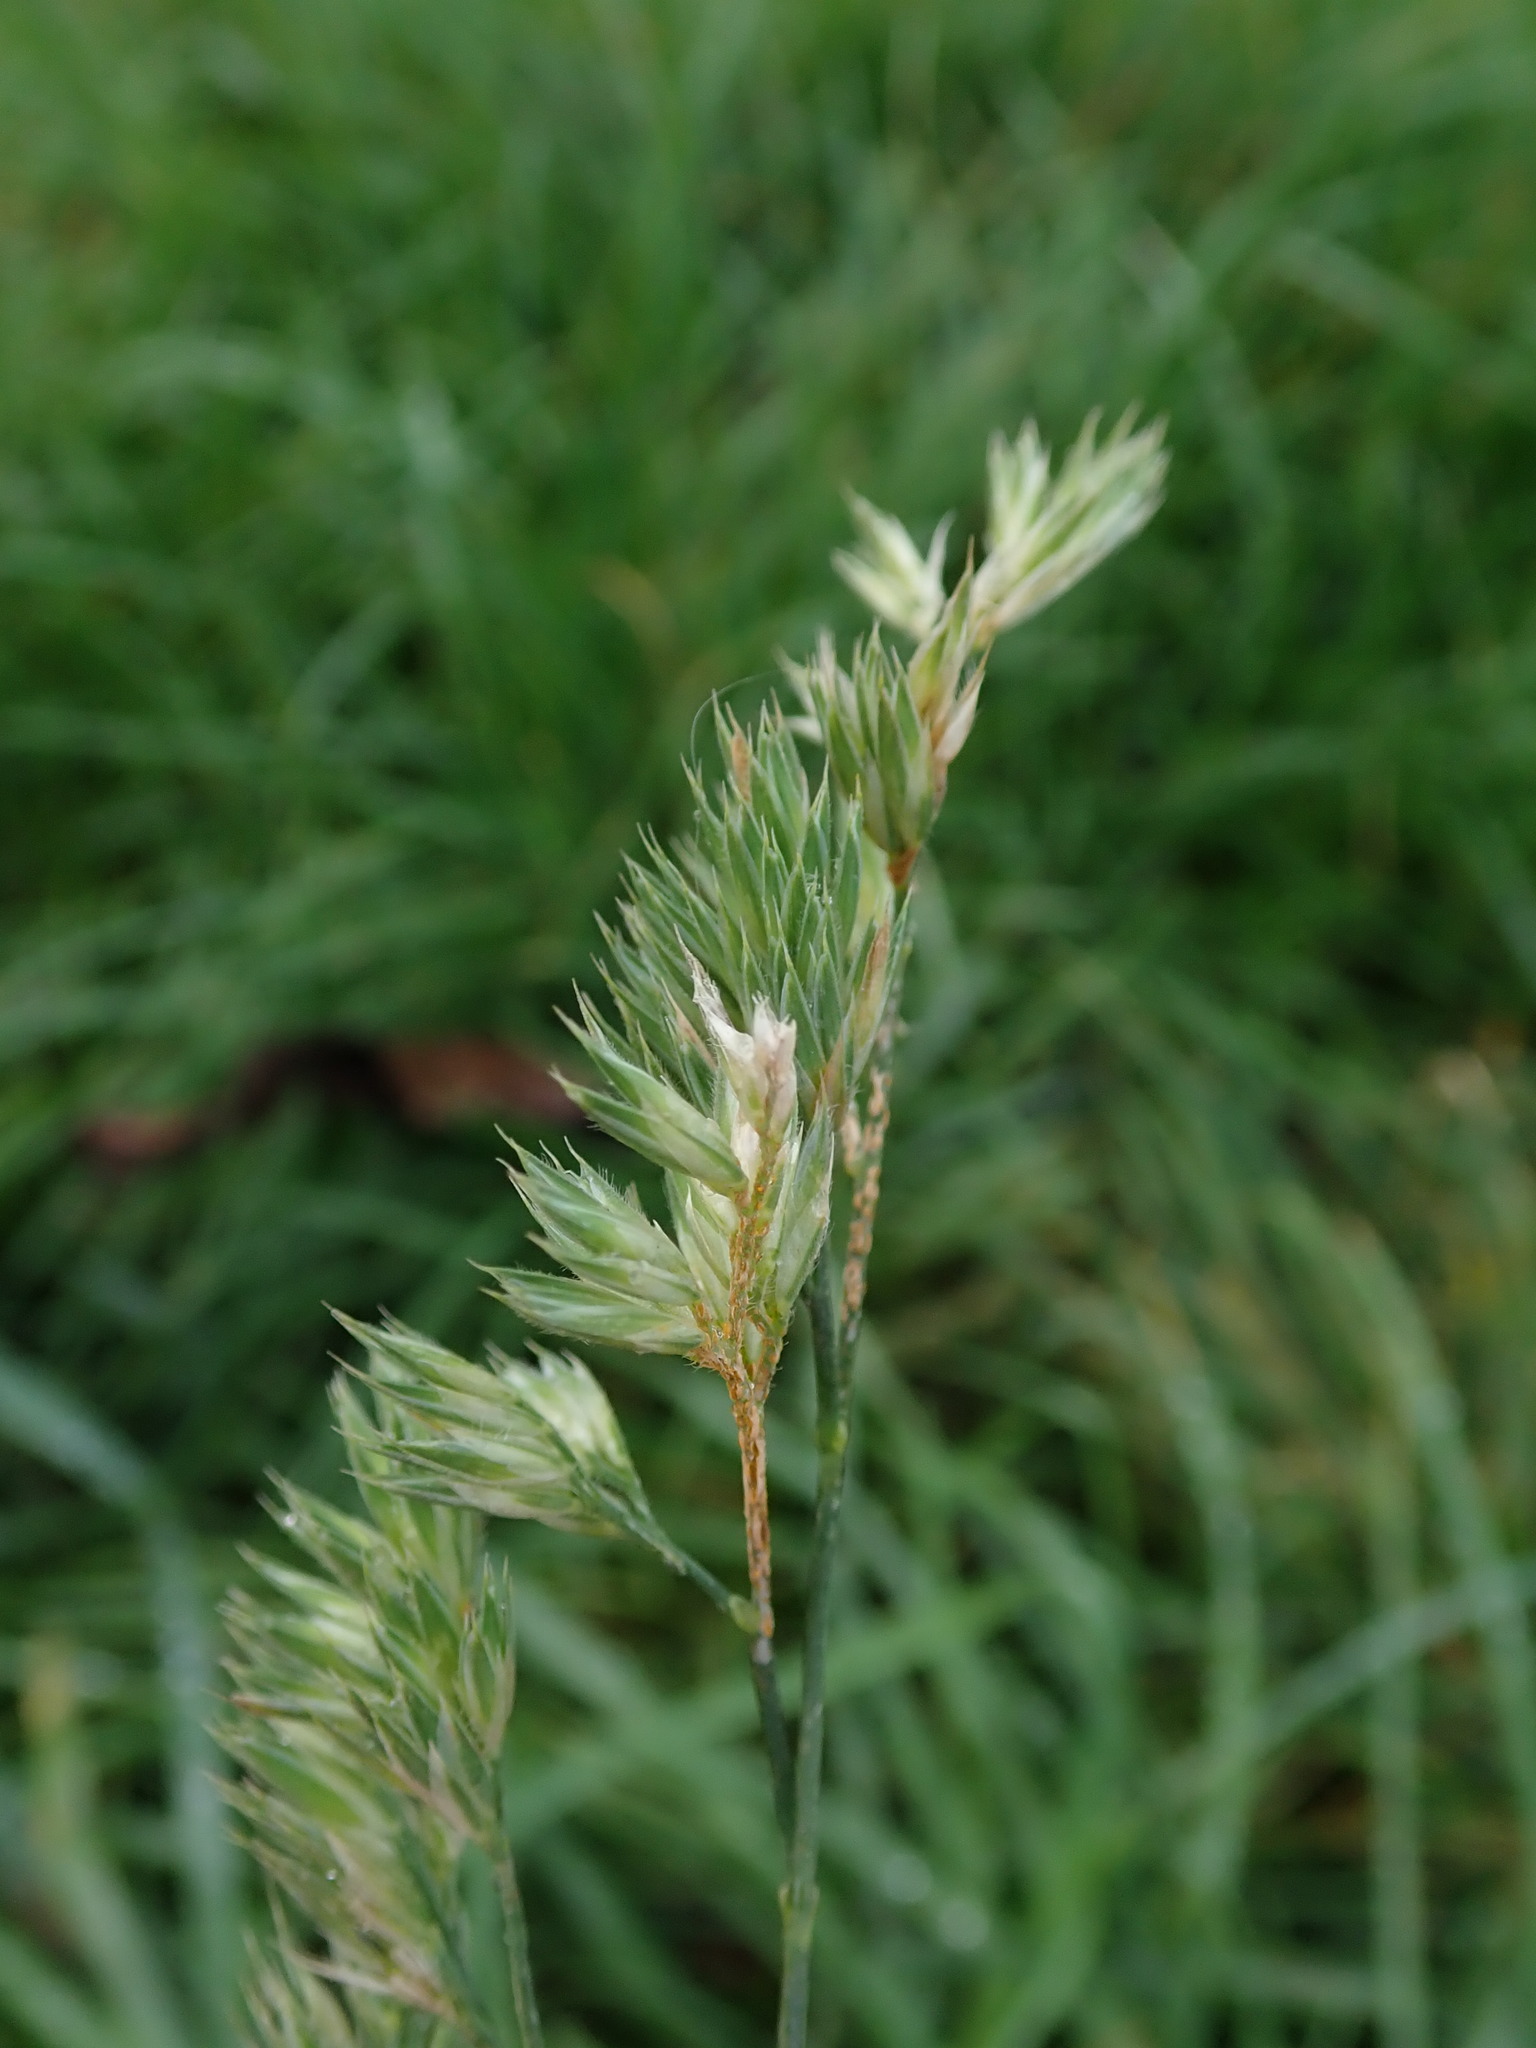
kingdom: Plantae
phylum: Tracheophyta
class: Liliopsida
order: Poales
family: Poaceae
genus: Dactylis
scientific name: Dactylis glomerata
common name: Orchardgrass
